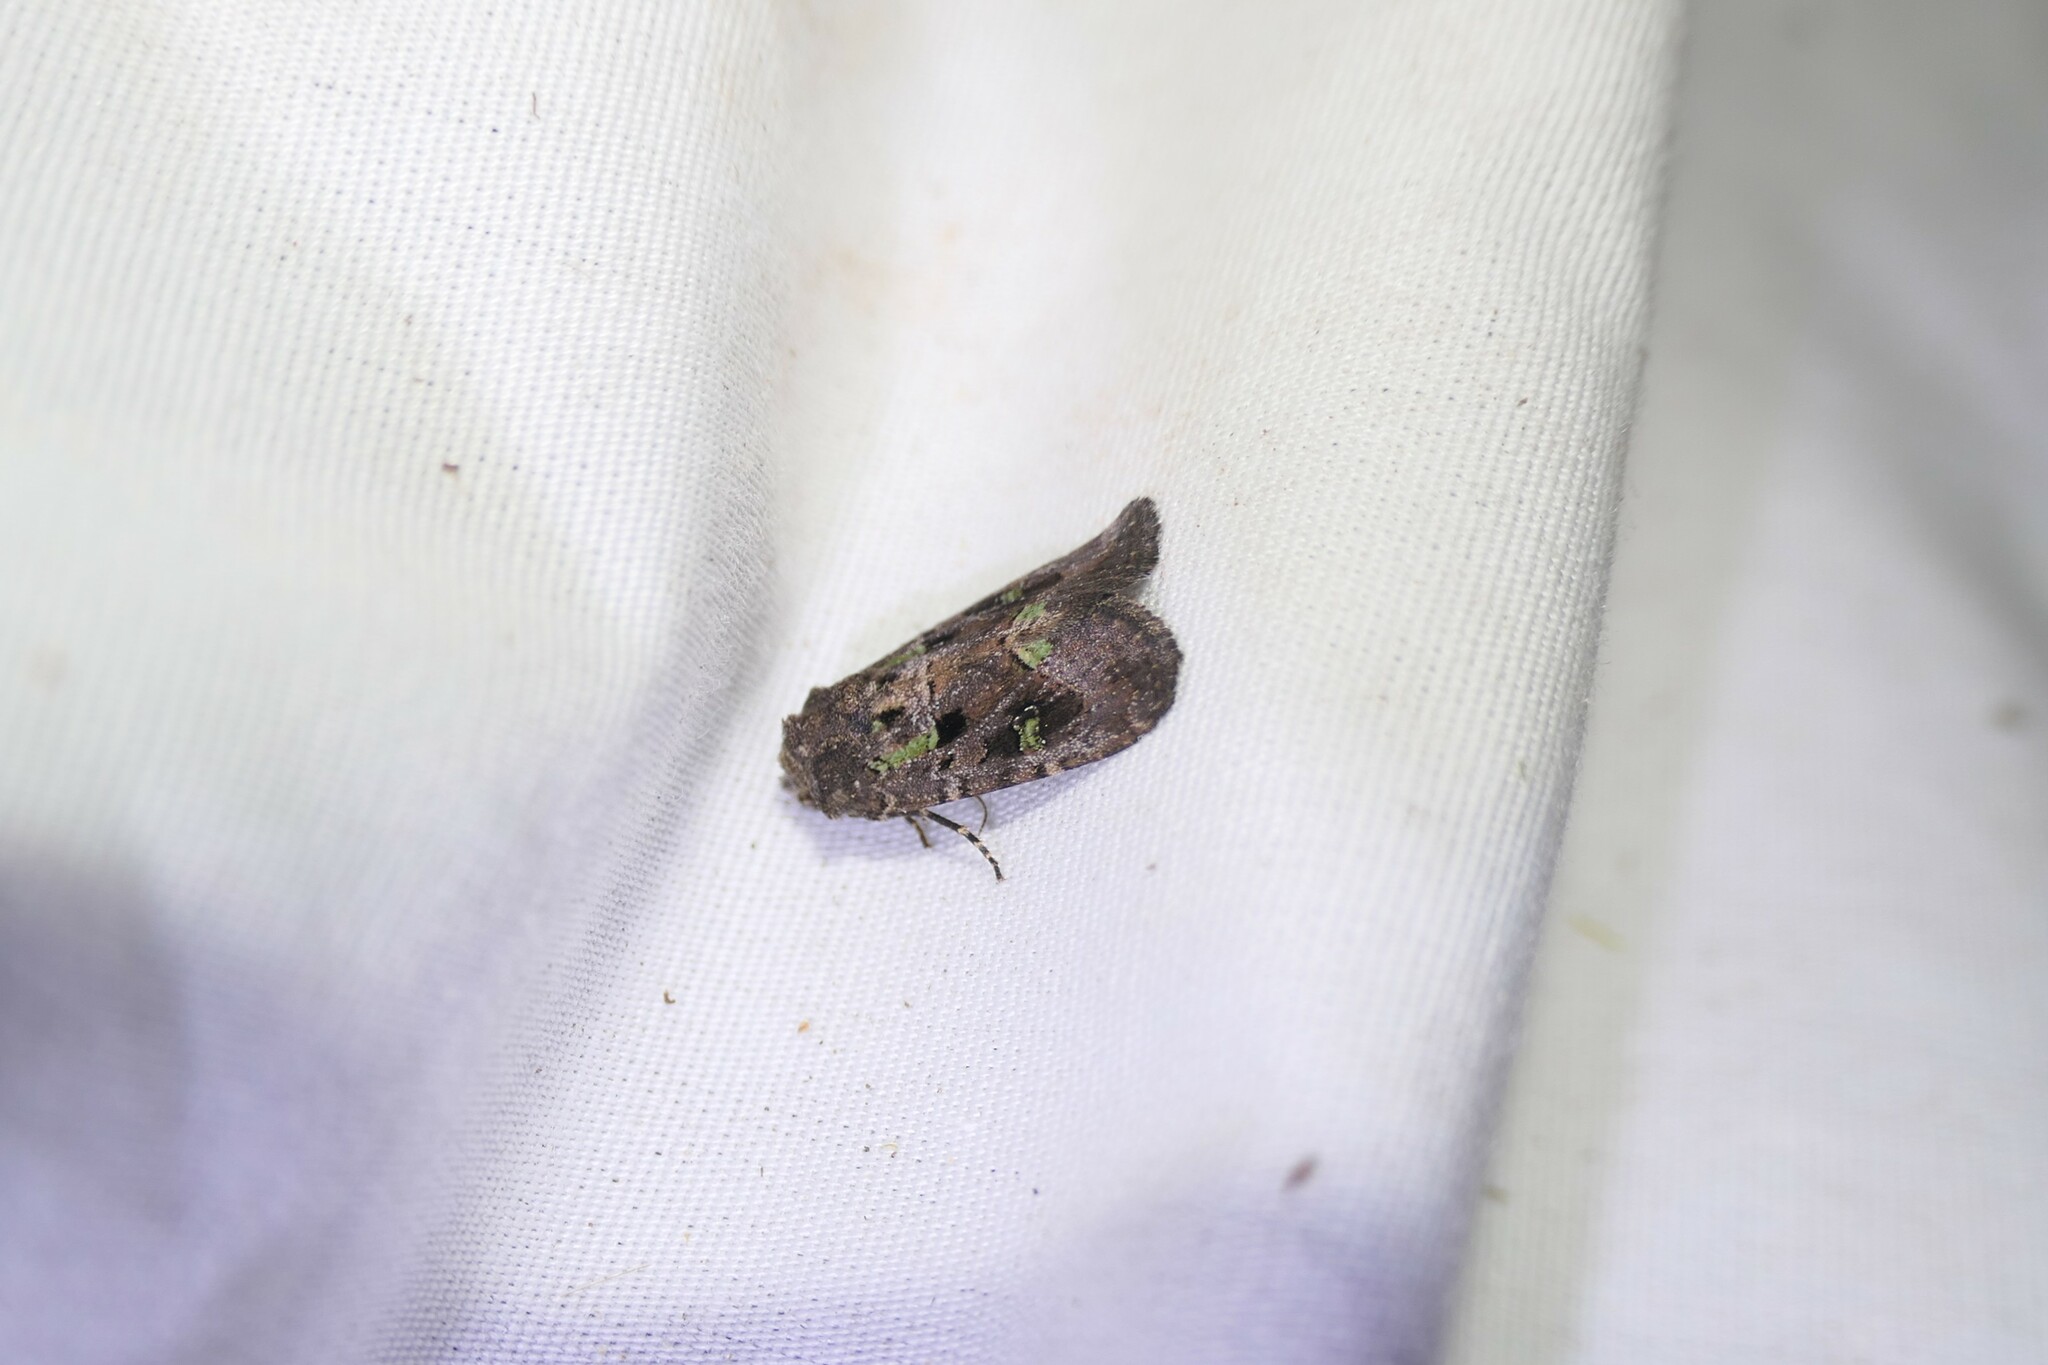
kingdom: Animalia
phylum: Arthropoda
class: Insecta
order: Lepidoptera
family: Noctuidae
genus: Lacinipolia
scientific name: Lacinipolia renigera
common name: Kidney-spotted minor
